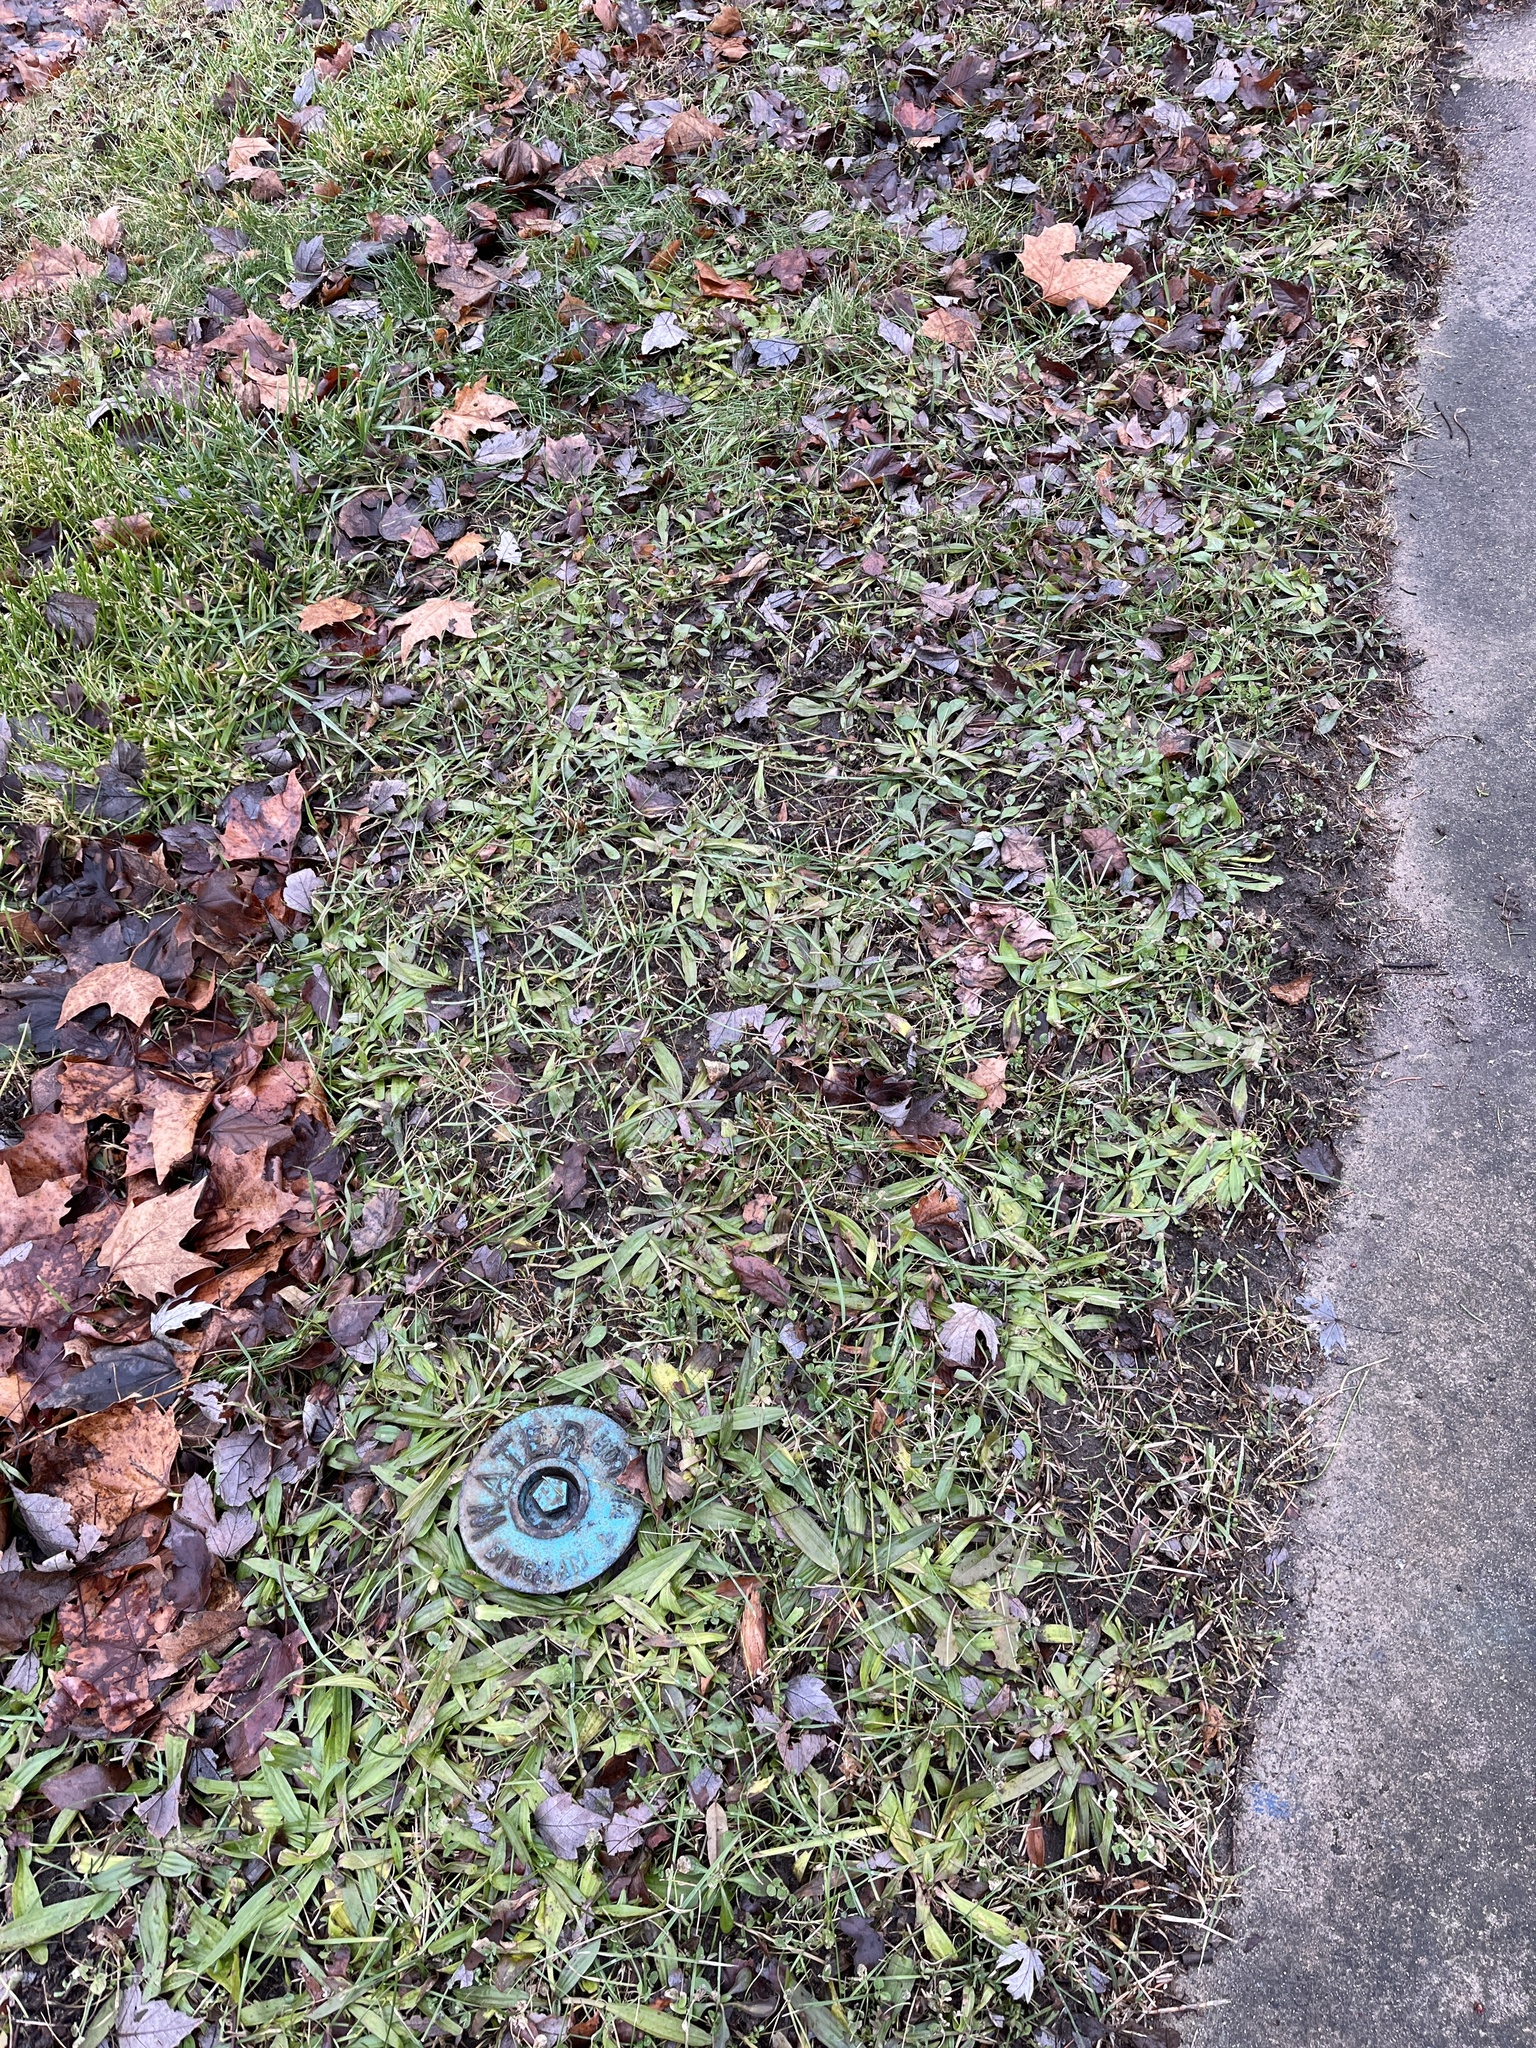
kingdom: Plantae
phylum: Tracheophyta
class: Magnoliopsida
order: Lamiales
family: Plantaginaceae
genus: Plantago
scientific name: Plantago lanceolata
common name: Ribwort plantain
